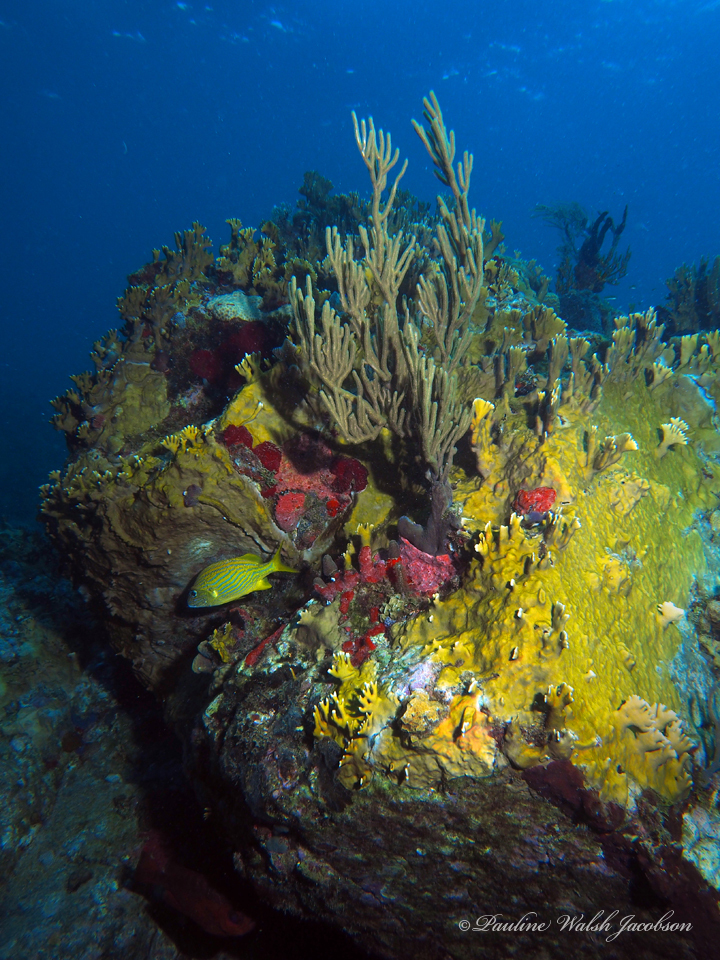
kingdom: Animalia
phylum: Chordata
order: Perciformes
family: Haemulidae
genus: Haemulon
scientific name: Haemulon flavolineatum
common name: French grunt
